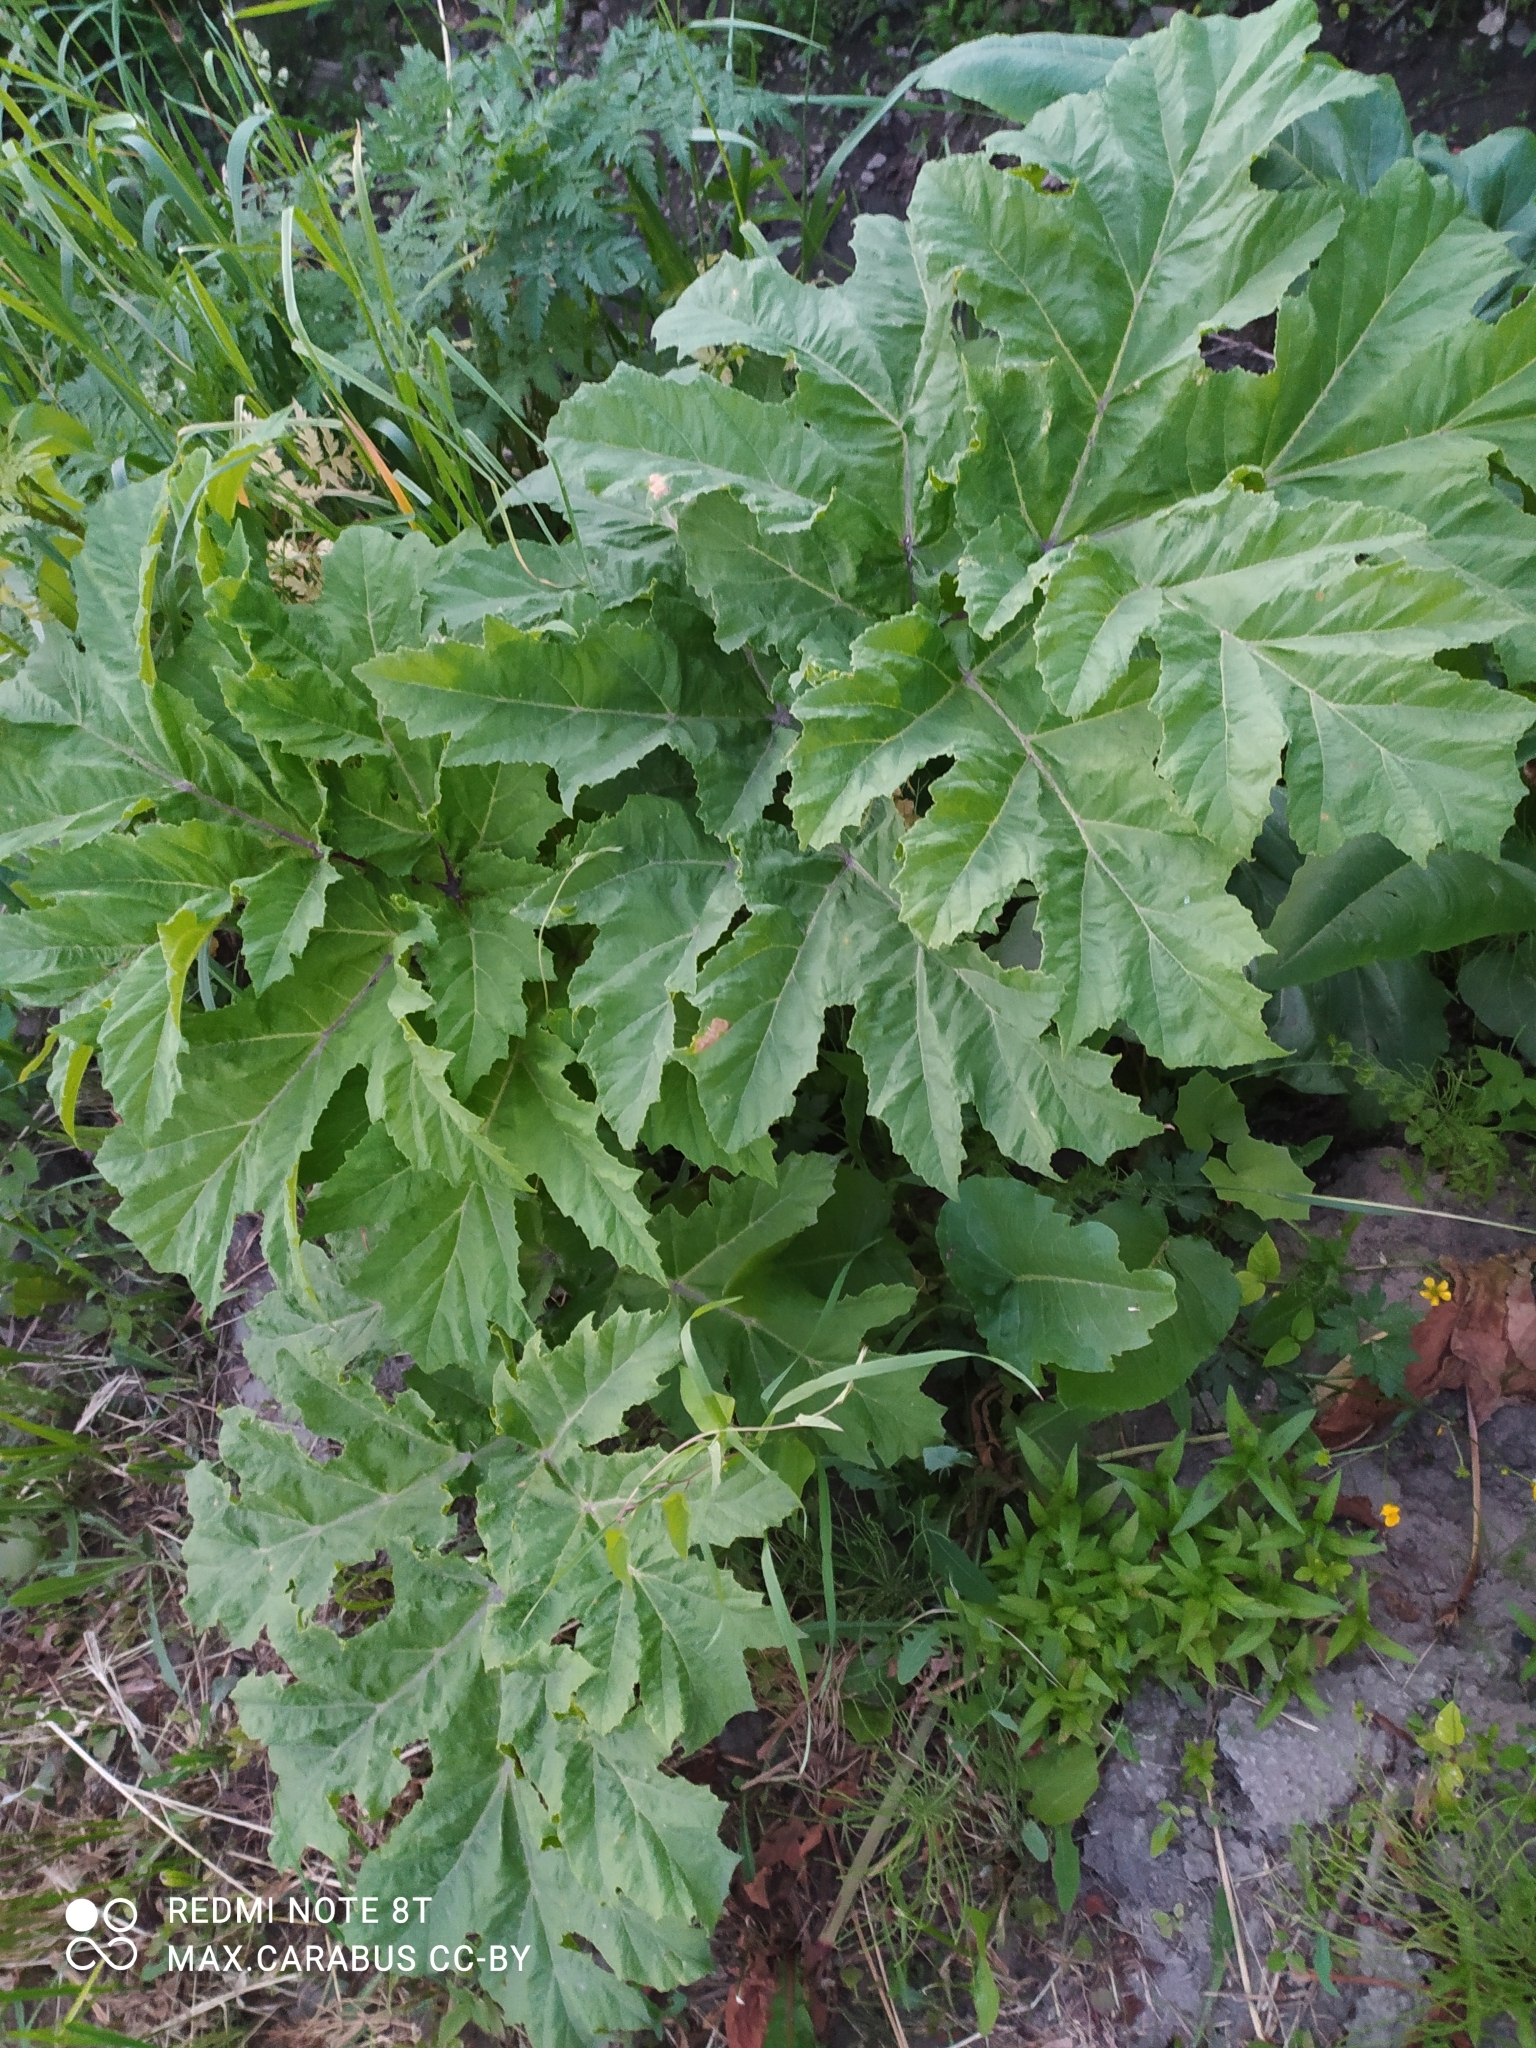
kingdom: Plantae
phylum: Tracheophyta
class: Magnoliopsida
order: Apiales
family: Apiaceae
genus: Heracleum
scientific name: Heracleum sosnowskyi
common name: Sosnowsky's hogweed
